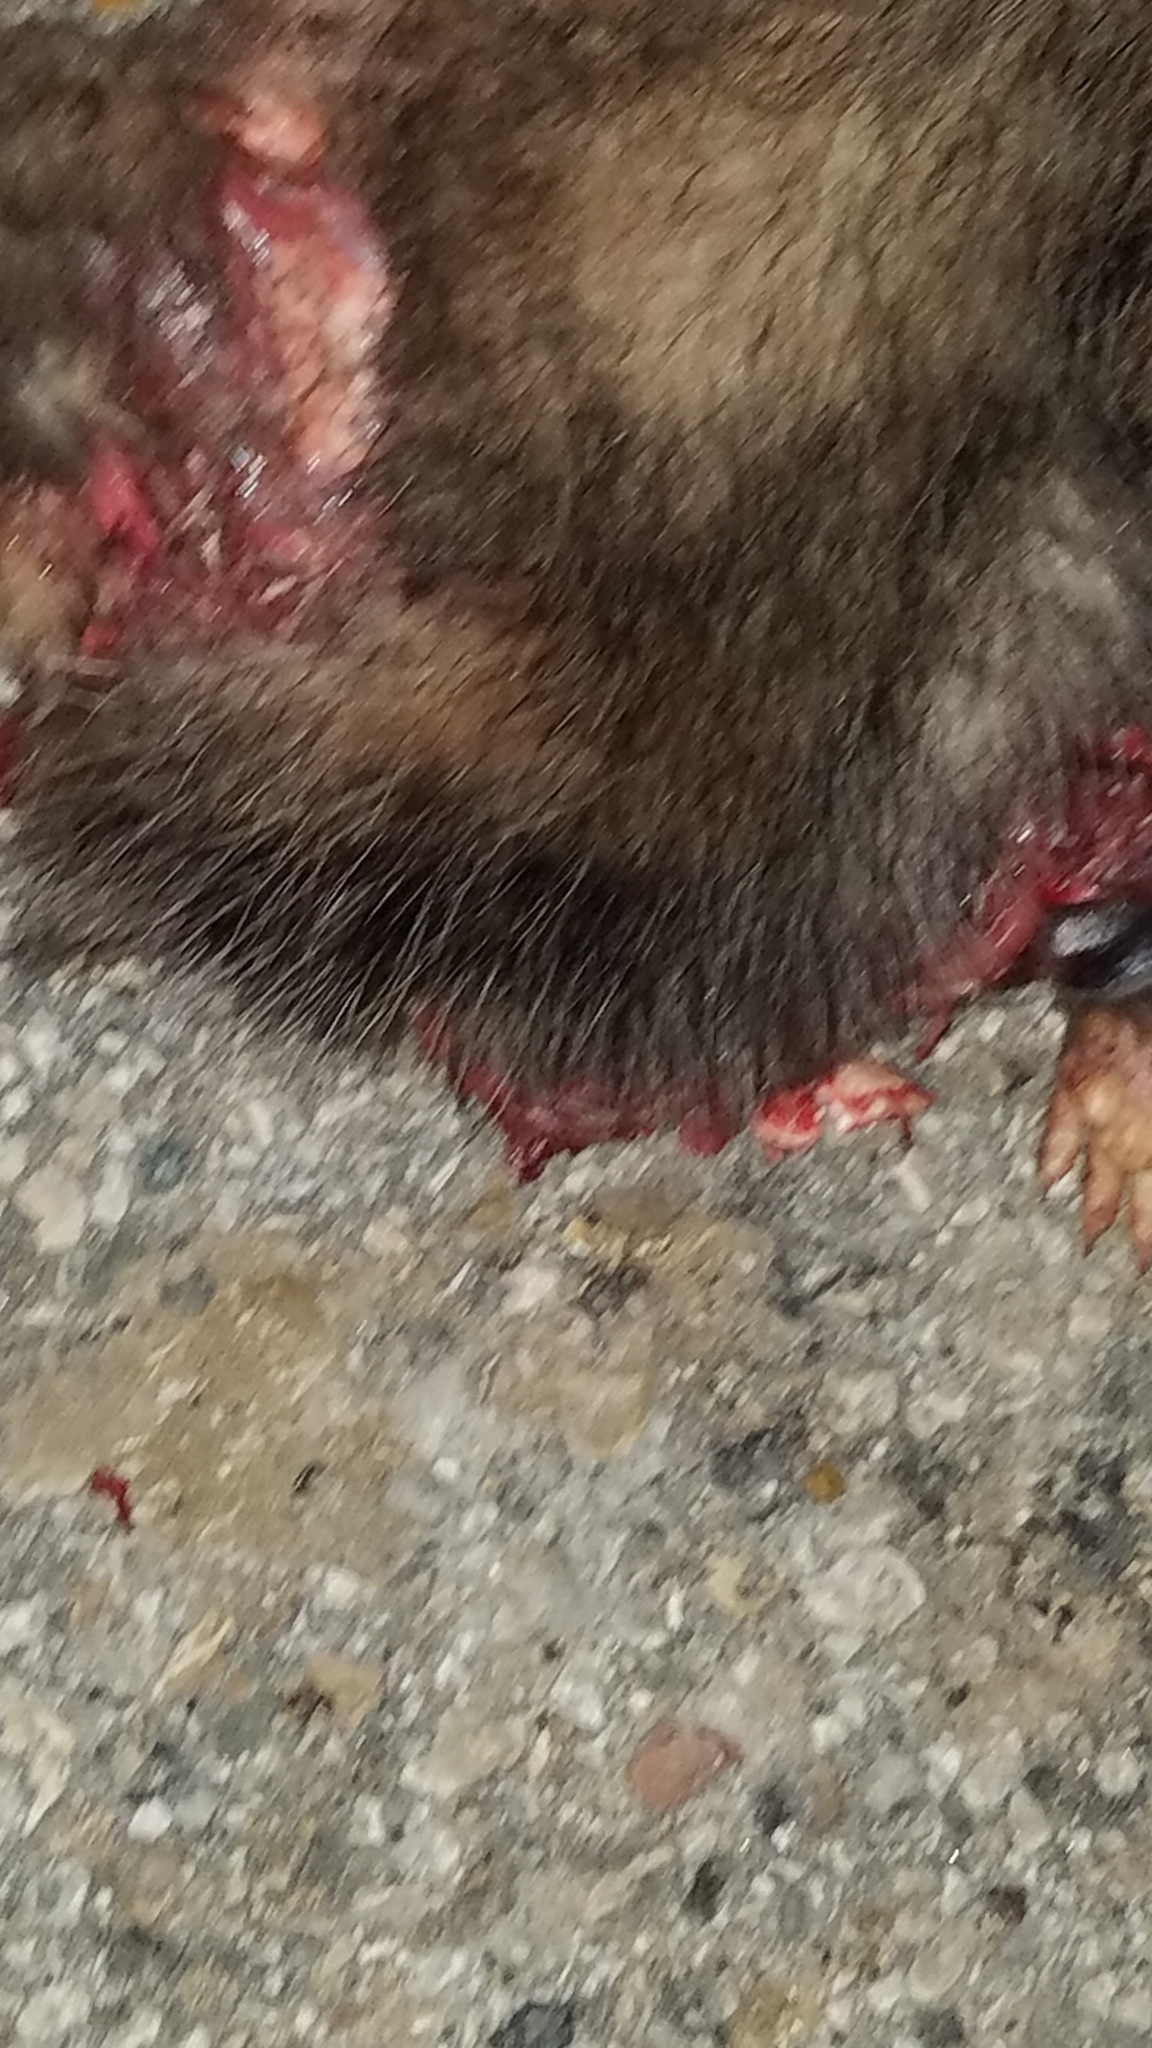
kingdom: Animalia
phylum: Chordata
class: Mammalia
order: Didelphimorphia
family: Didelphidae
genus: Didelphis
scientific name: Didelphis virginiana
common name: Virginia opossum
